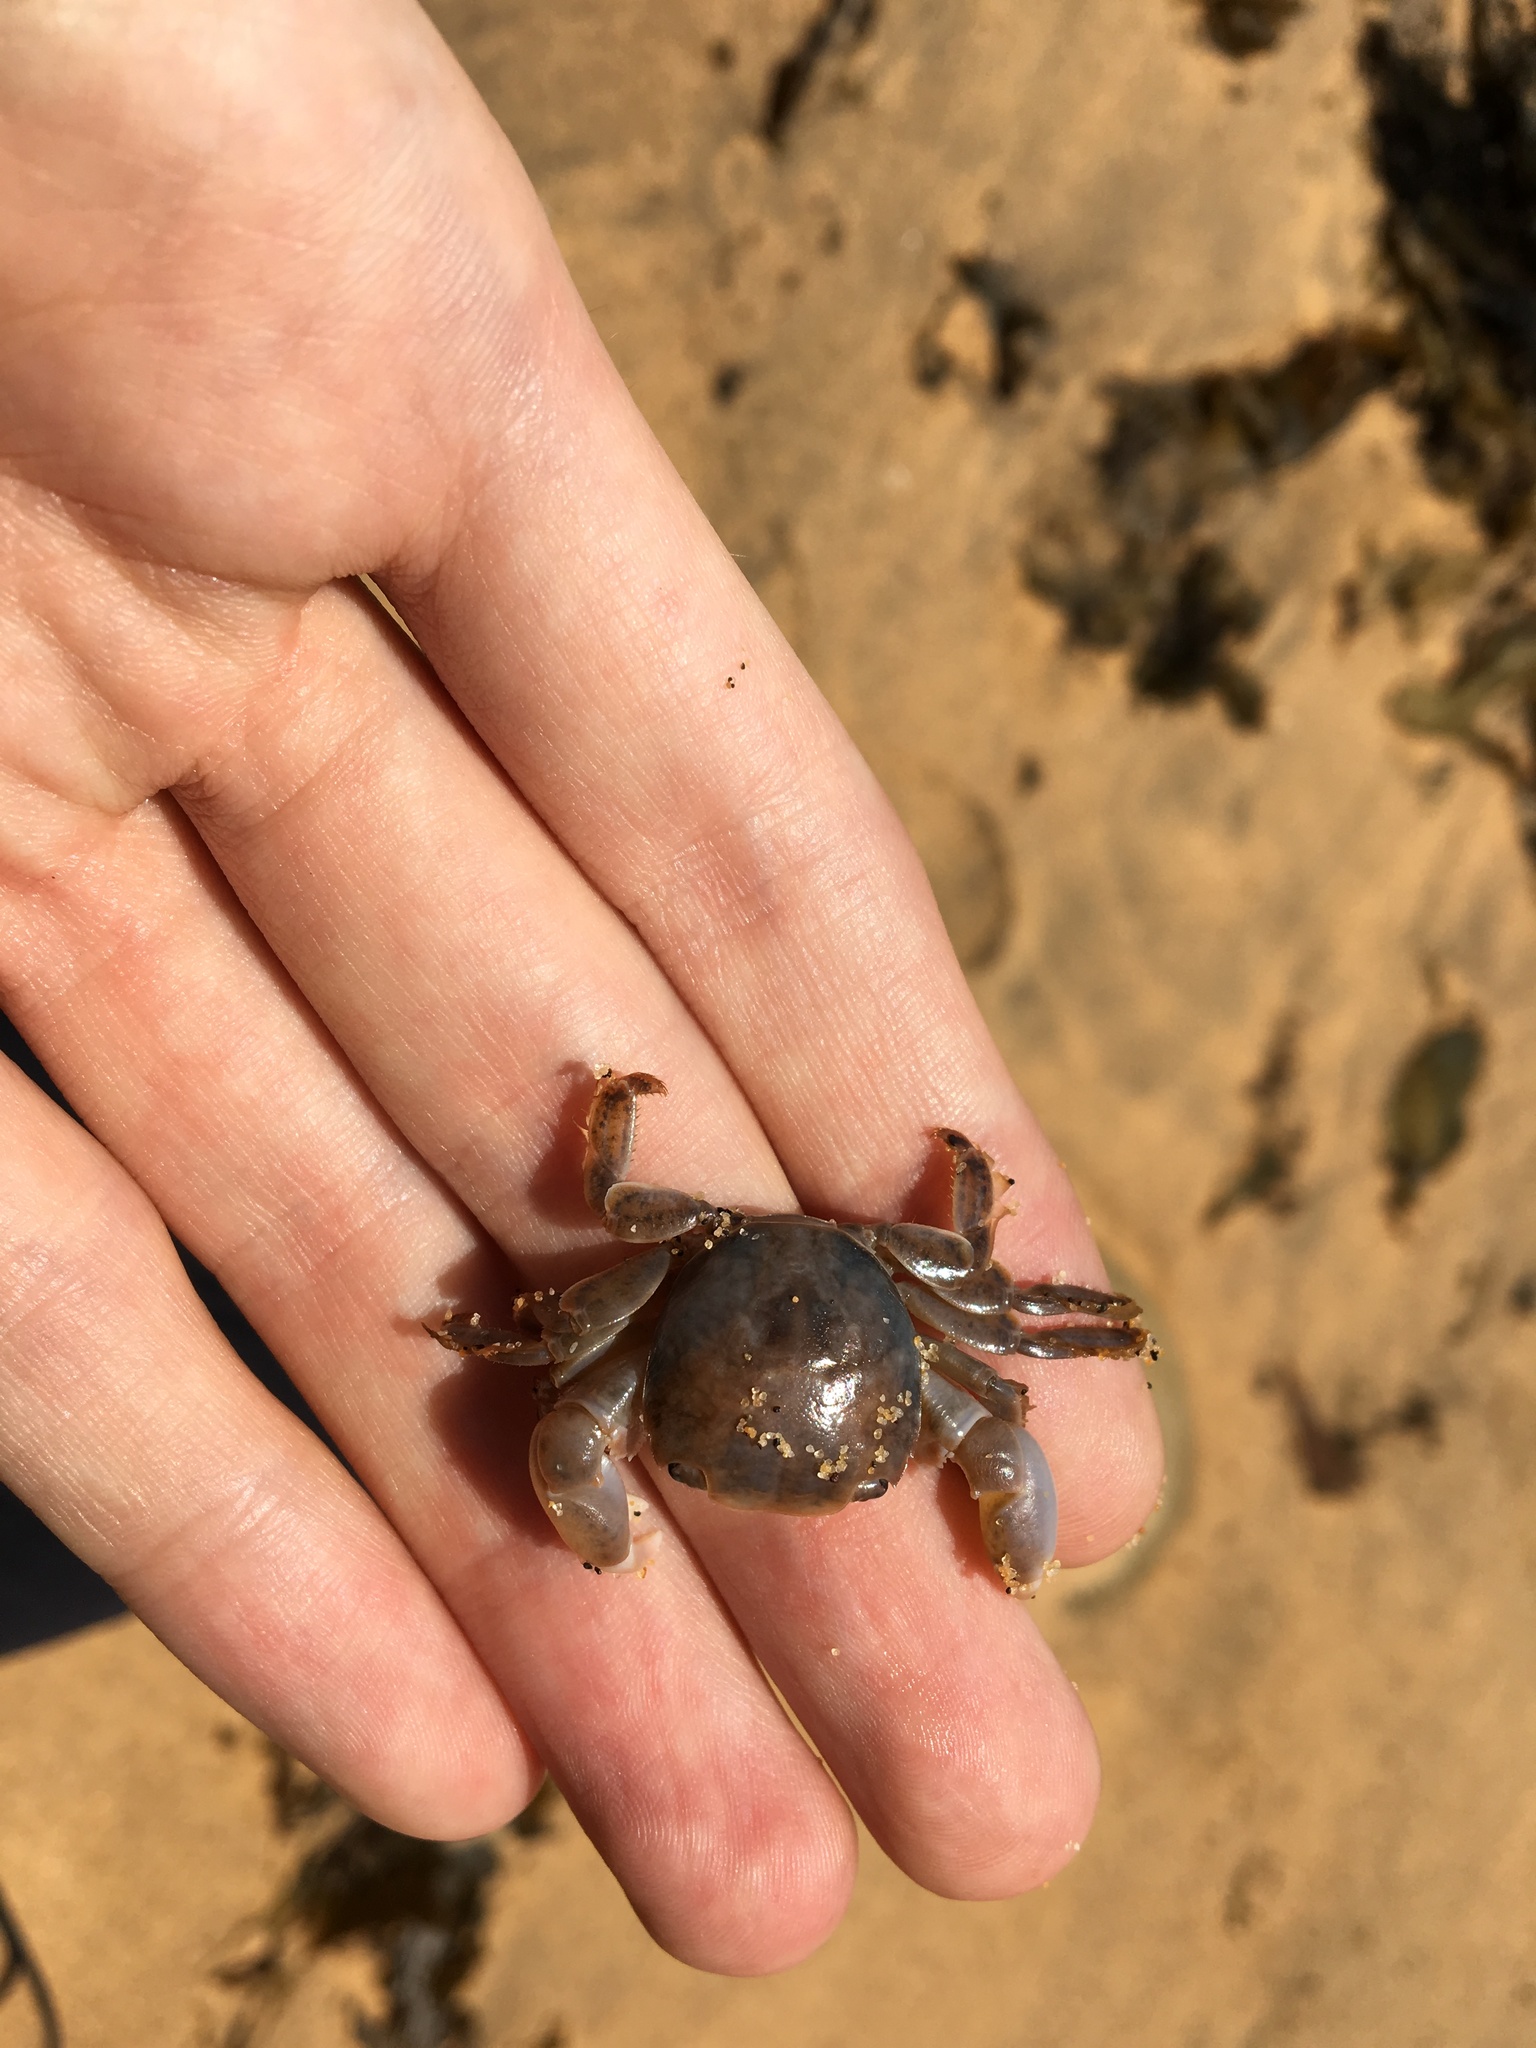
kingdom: Animalia
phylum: Arthropoda
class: Malacostraca
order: Decapoda
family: Grapsidae
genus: Planes
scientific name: Planes minutus
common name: Gulf weed crab
